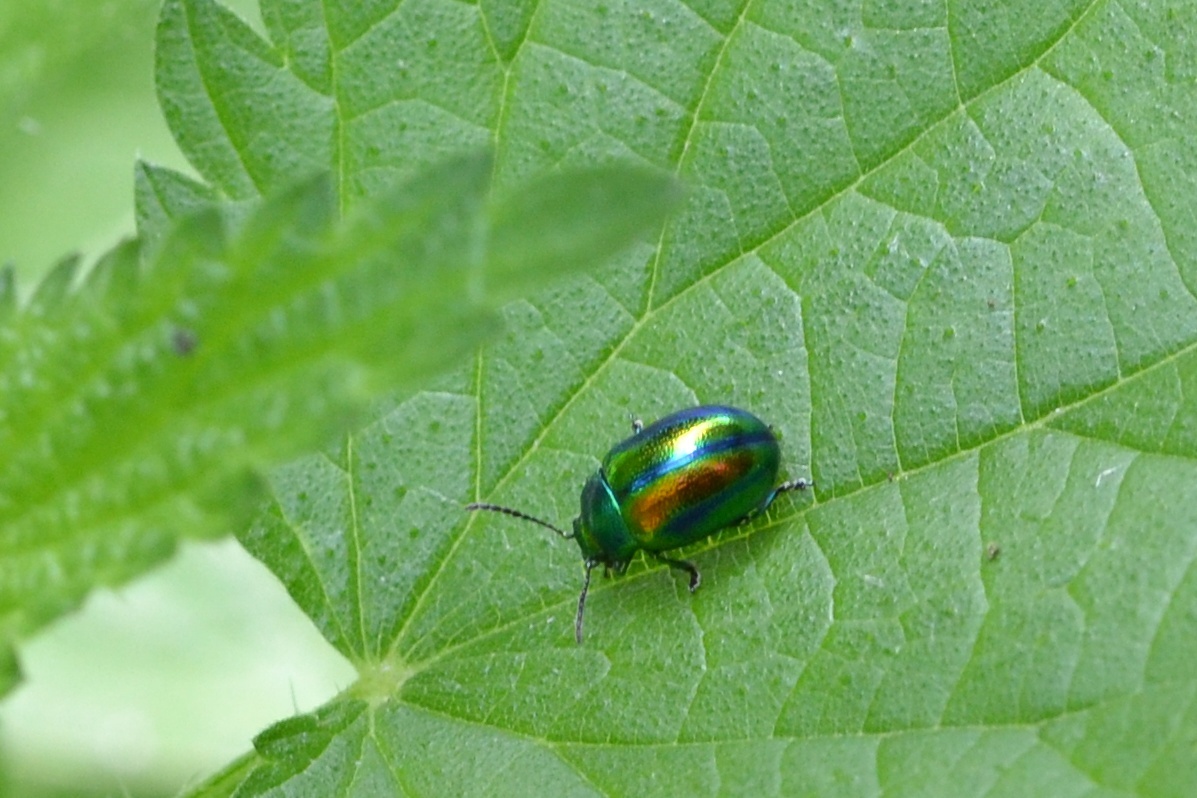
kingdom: Animalia
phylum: Arthropoda
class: Insecta
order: Coleoptera
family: Chrysomelidae
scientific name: Chrysomelidae
